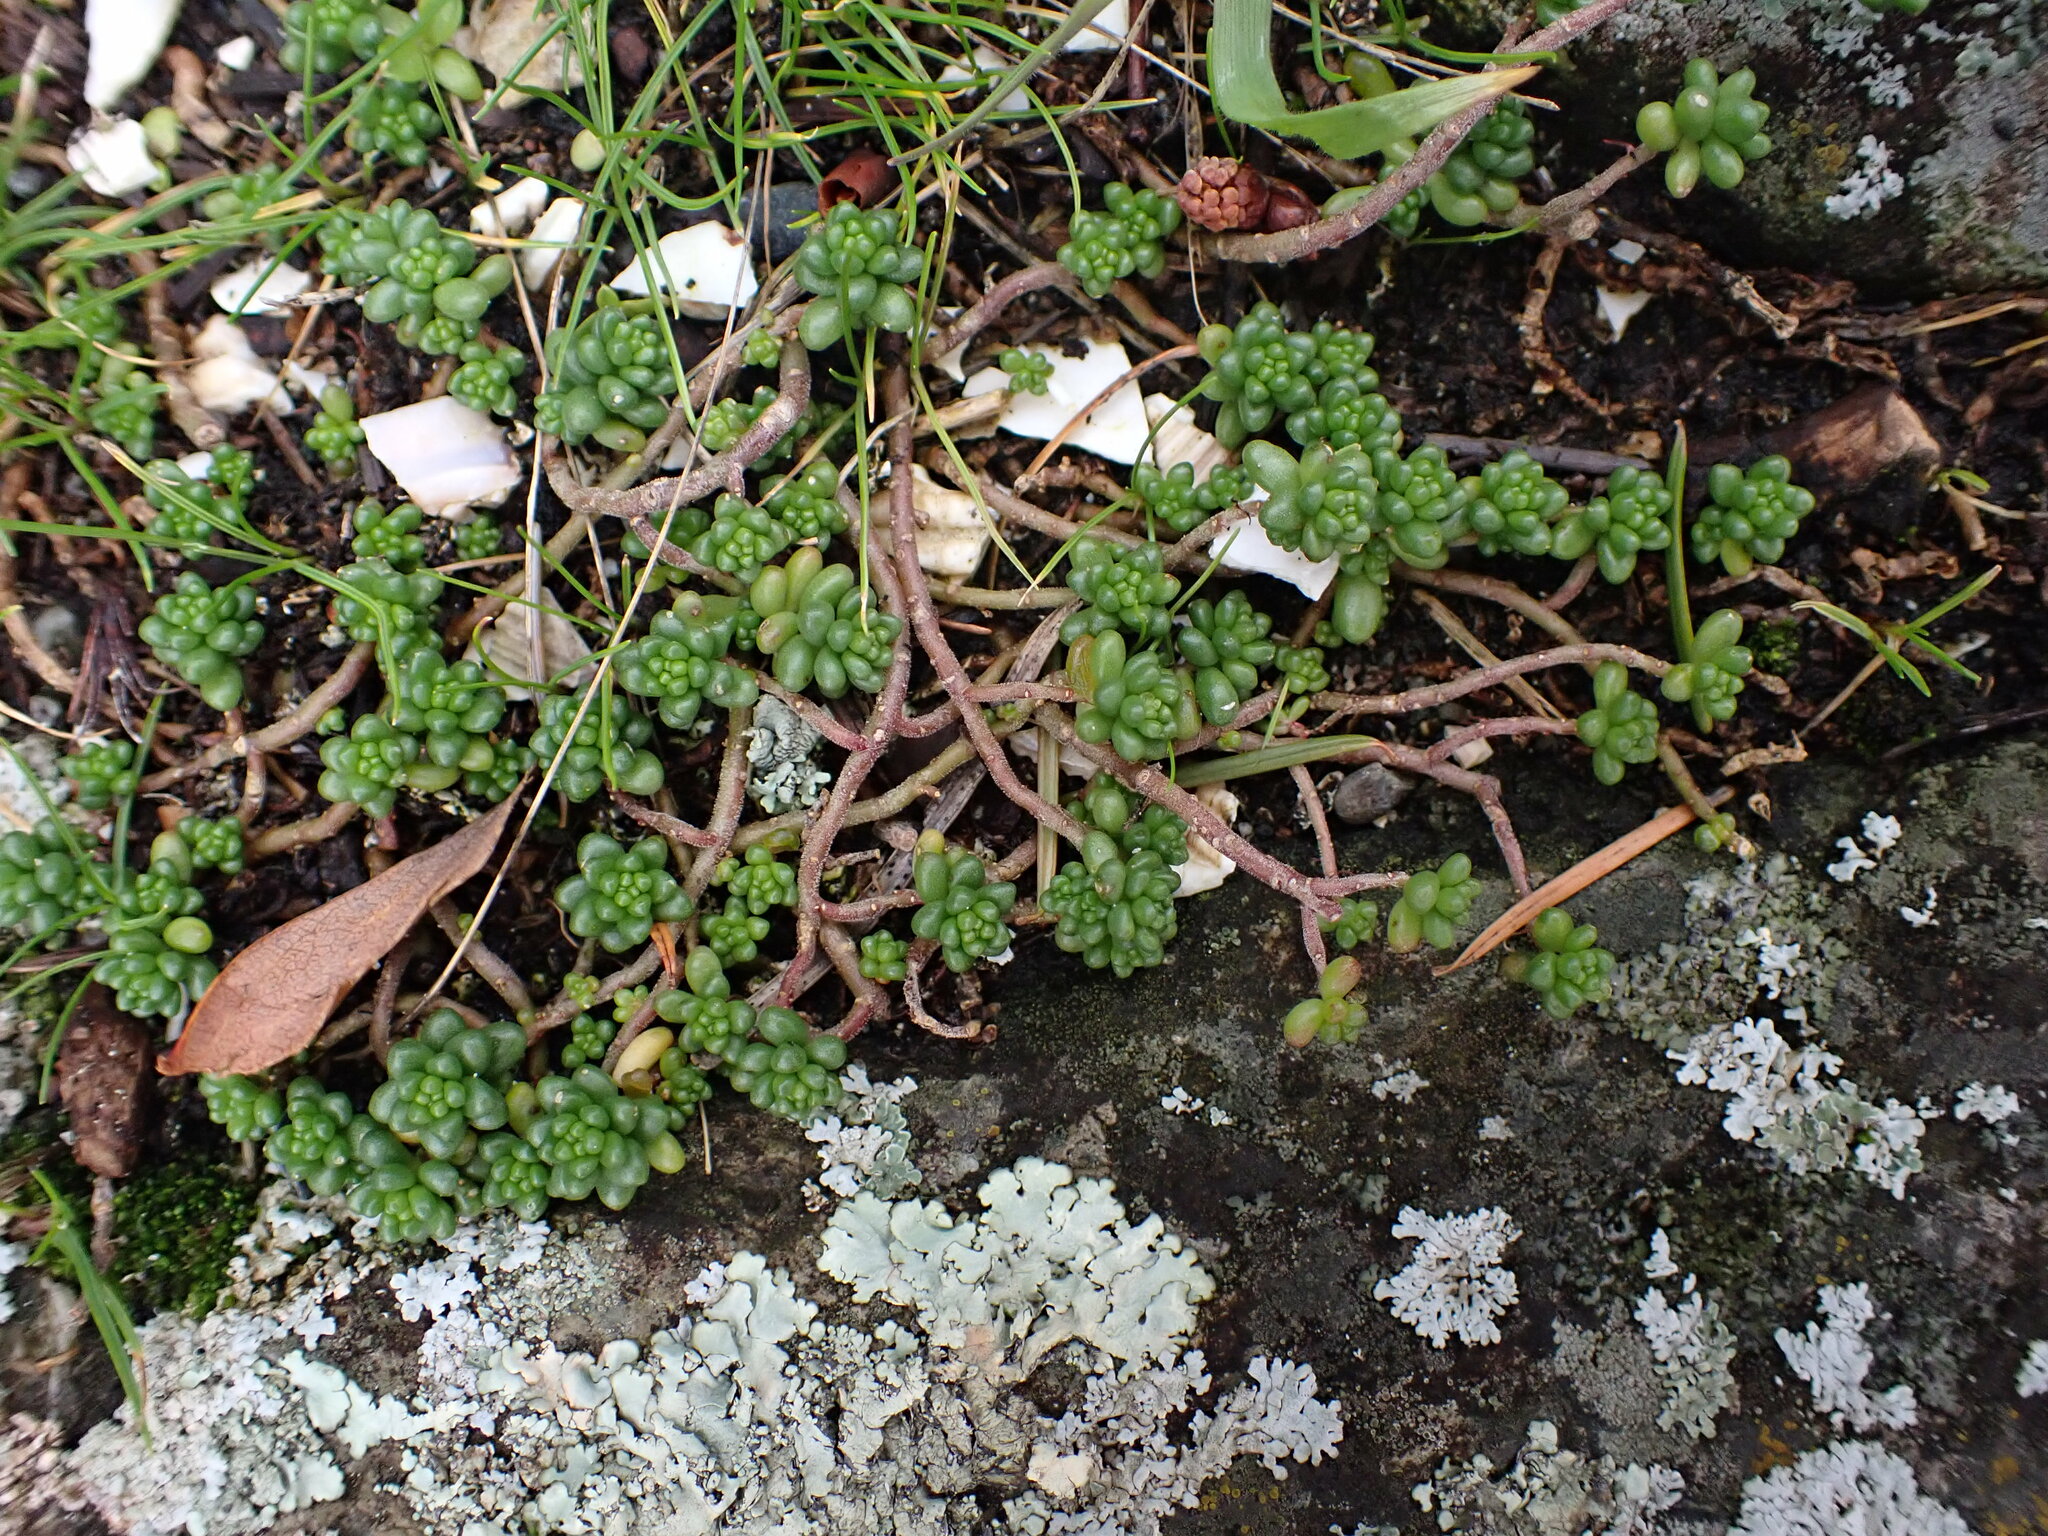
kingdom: Plantae
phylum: Tracheophyta
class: Magnoliopsida
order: Saxifragales
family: Crassulaceae
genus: Sedum
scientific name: Sedum album
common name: White stonecrop
